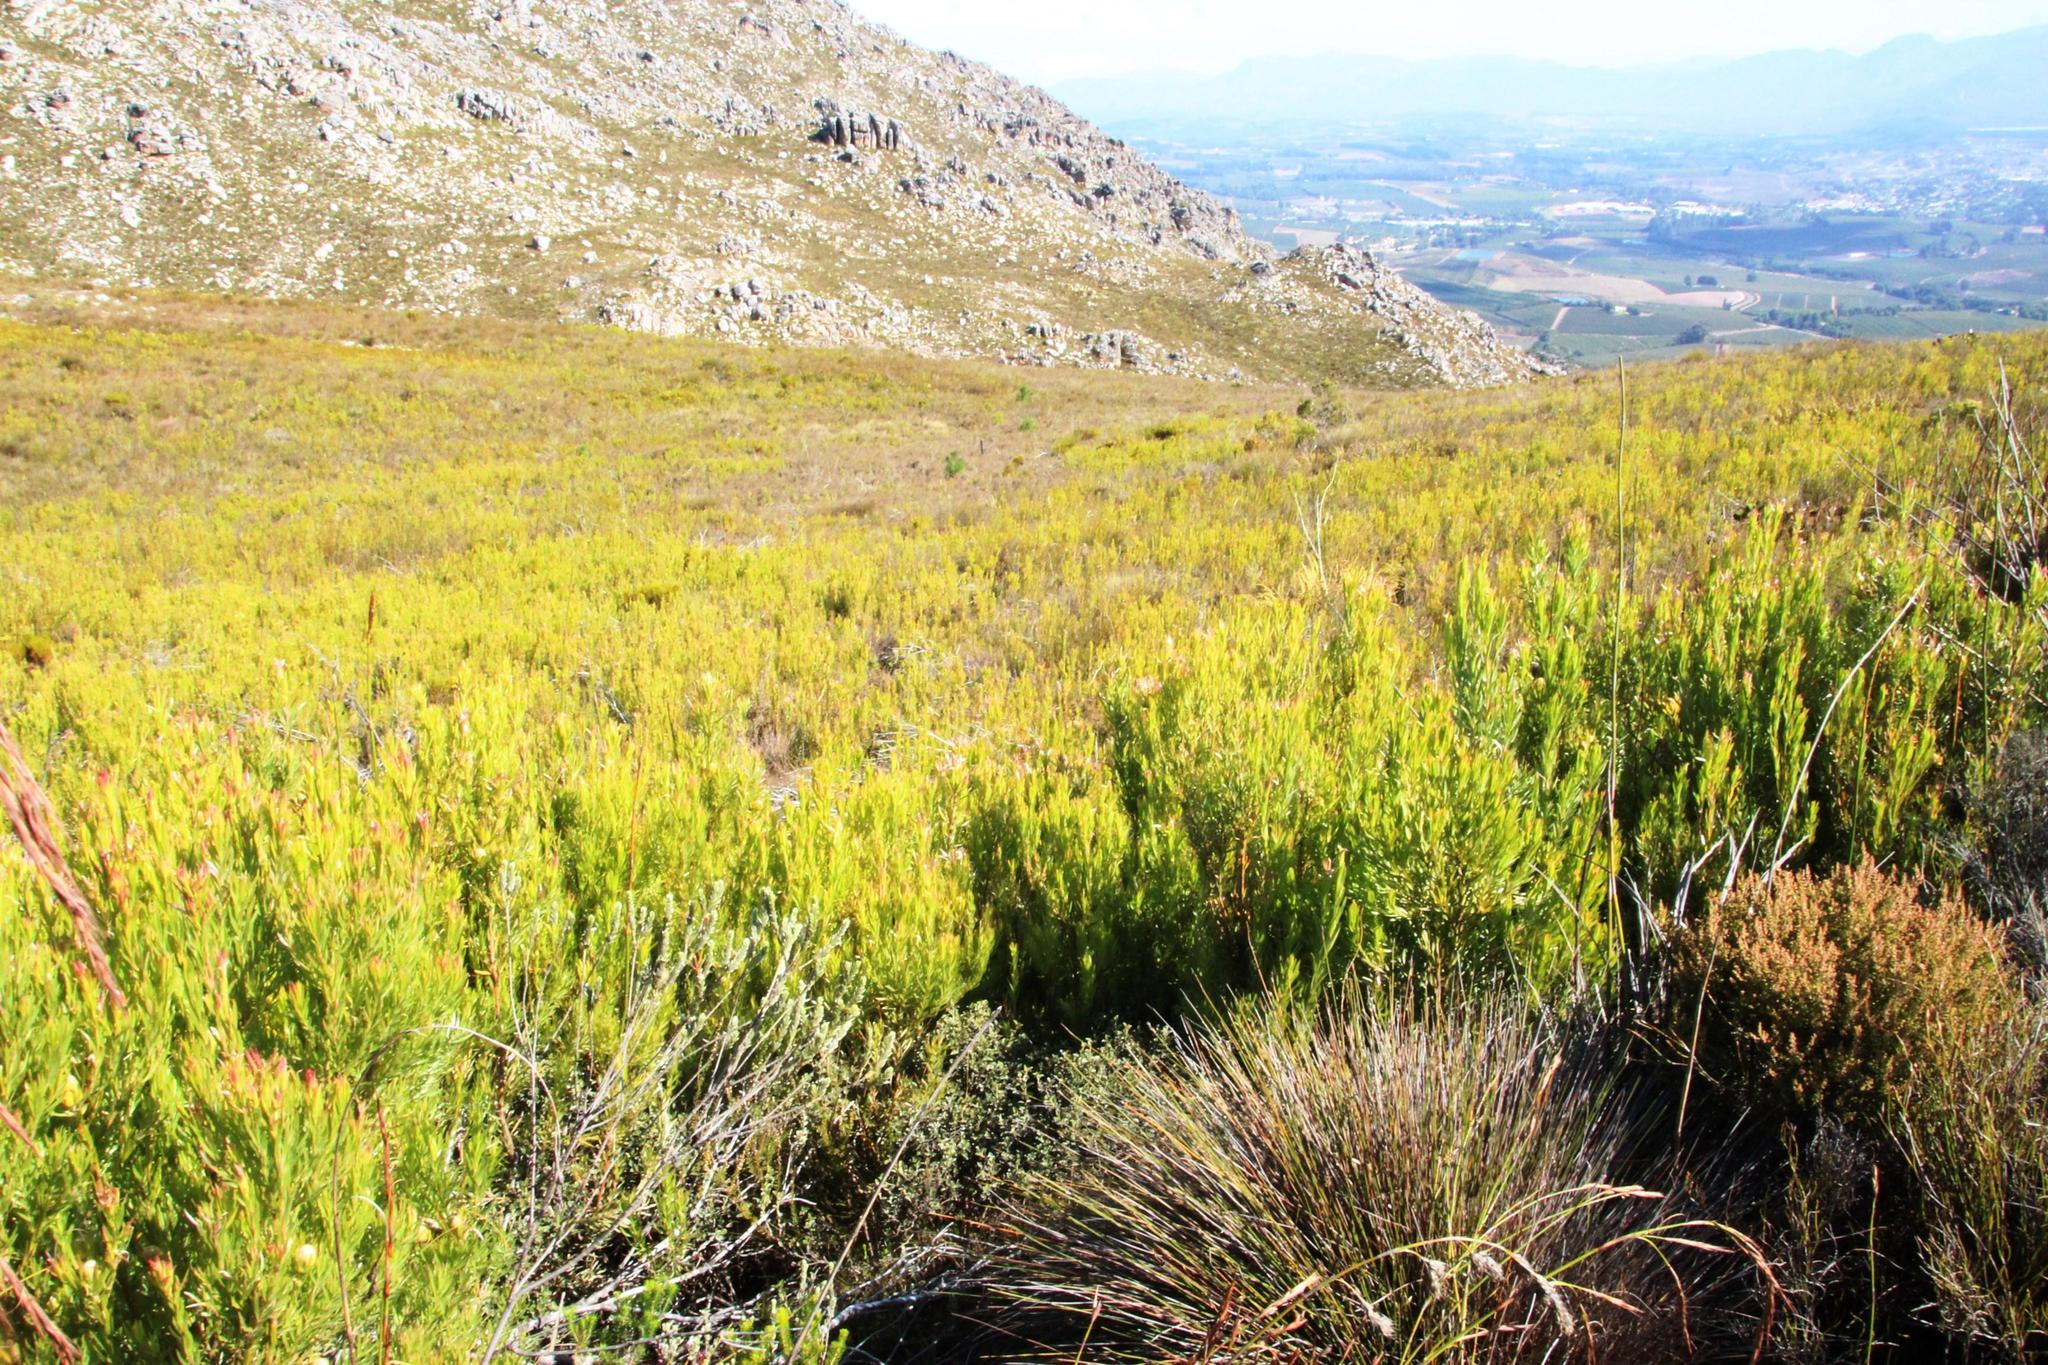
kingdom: Plantae
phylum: Tracheophyta
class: Magnoliopsida
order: Proteales
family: Proteaceae
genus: Leucadendron
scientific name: Leucadendron xanthoconus
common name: Sickle-leaf conebush
